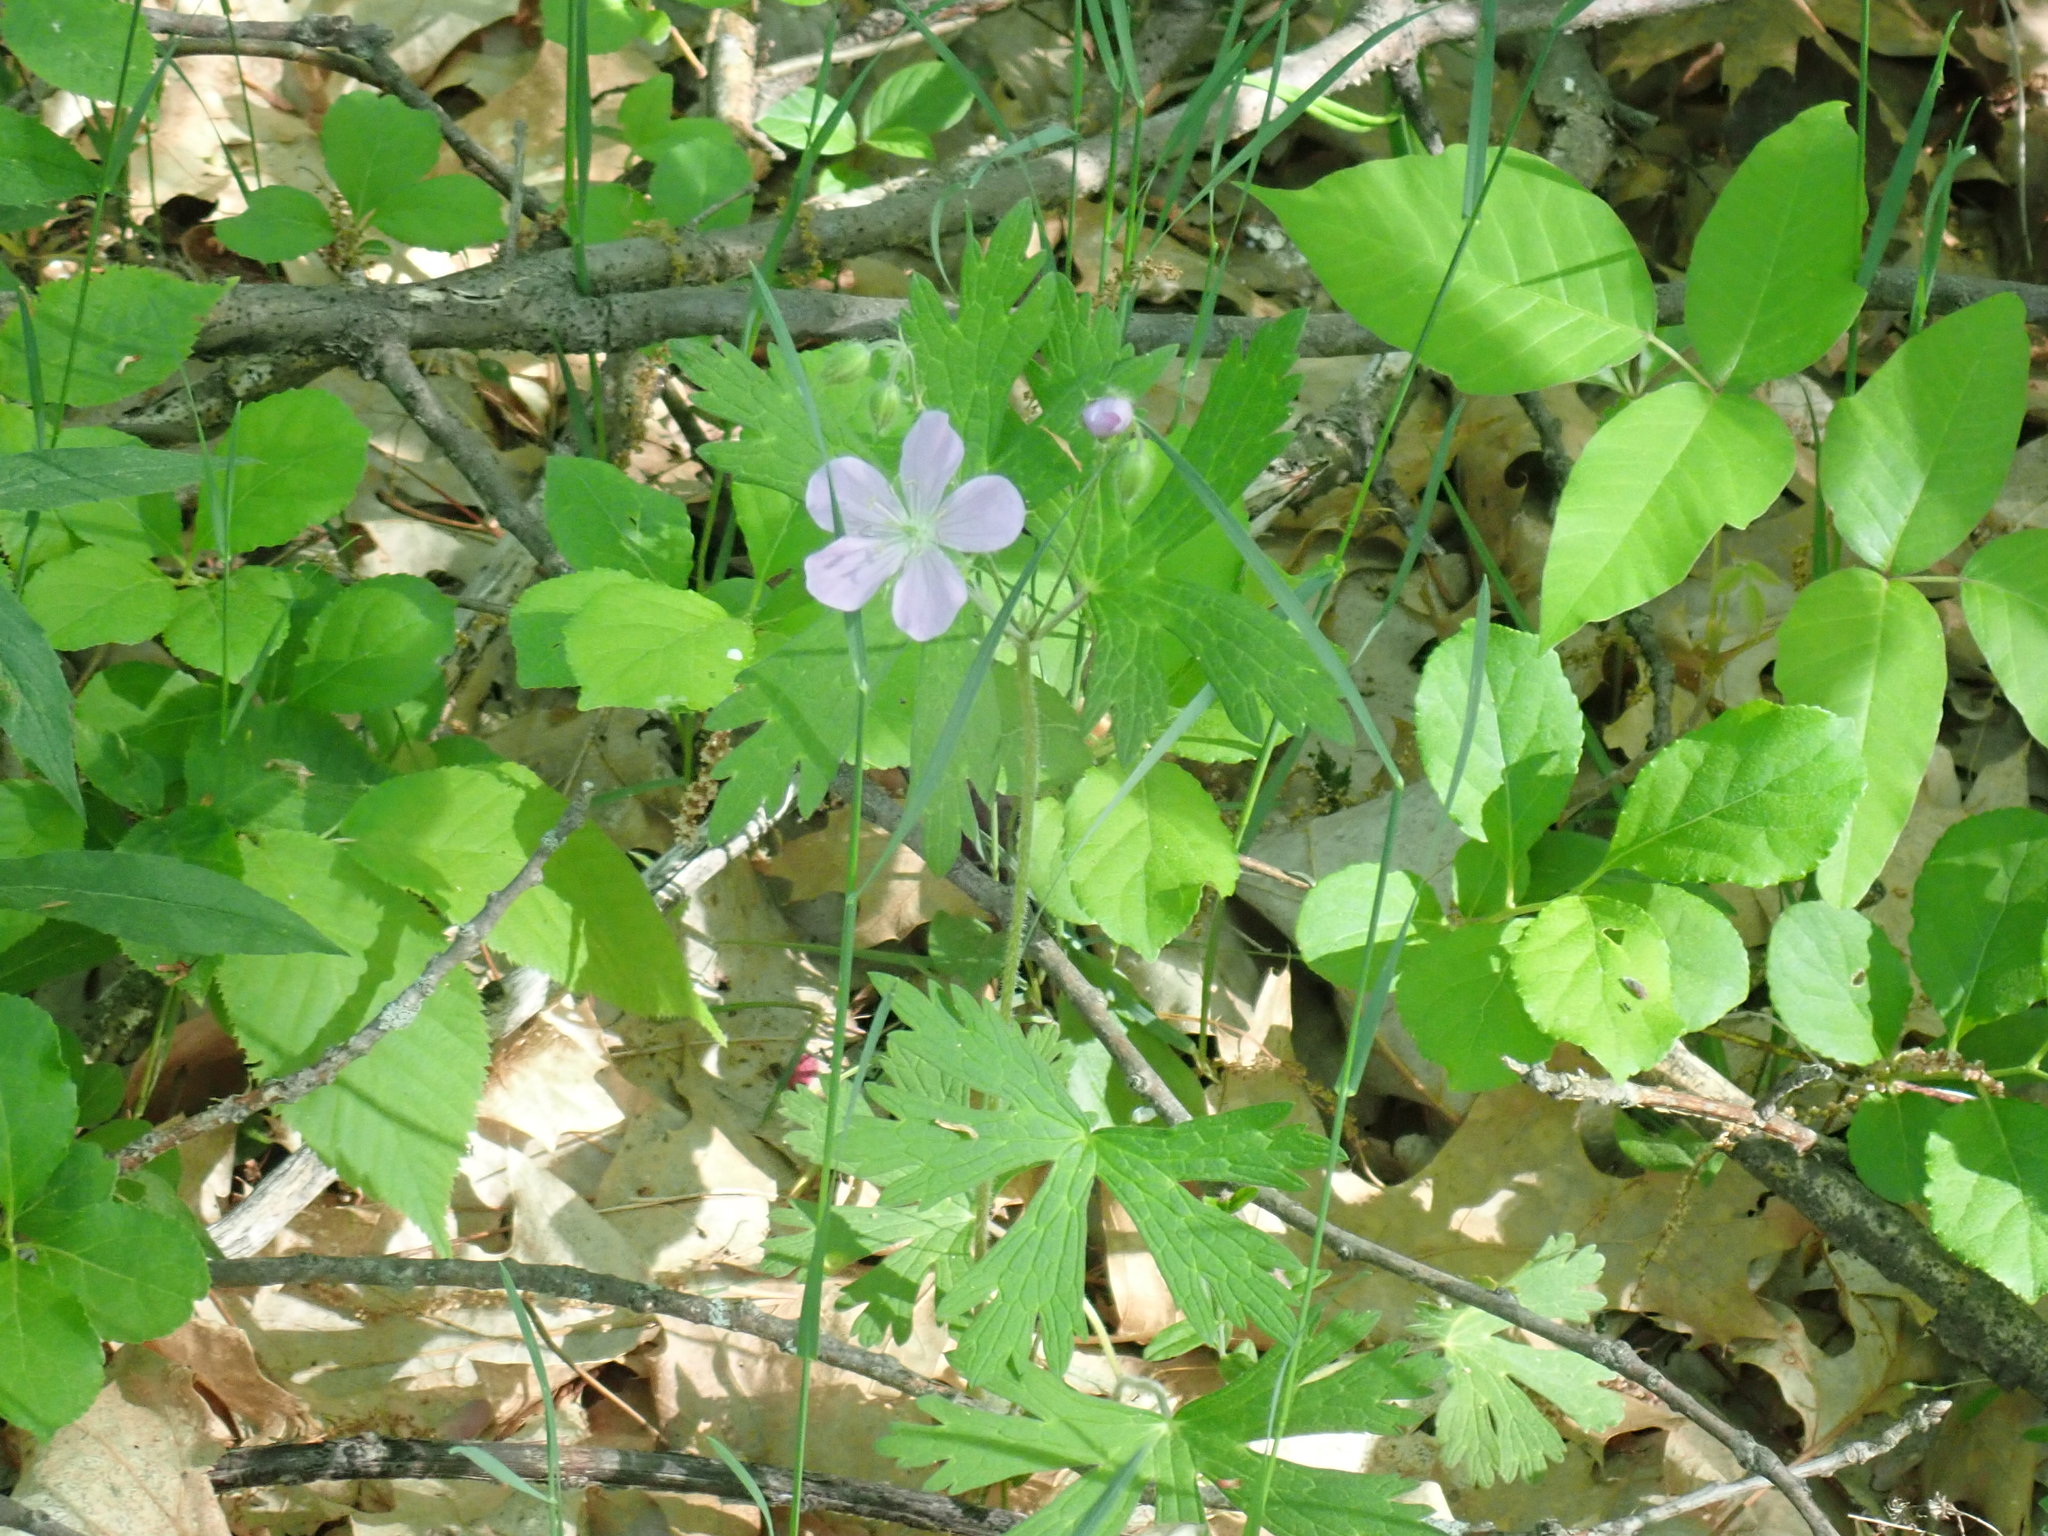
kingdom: Plantae
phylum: Tracheophyta
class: Magnoliopsida
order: Geraniales
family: Geraniaceae
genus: Geranium
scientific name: Geranium maculatum
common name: Spotted geranium
